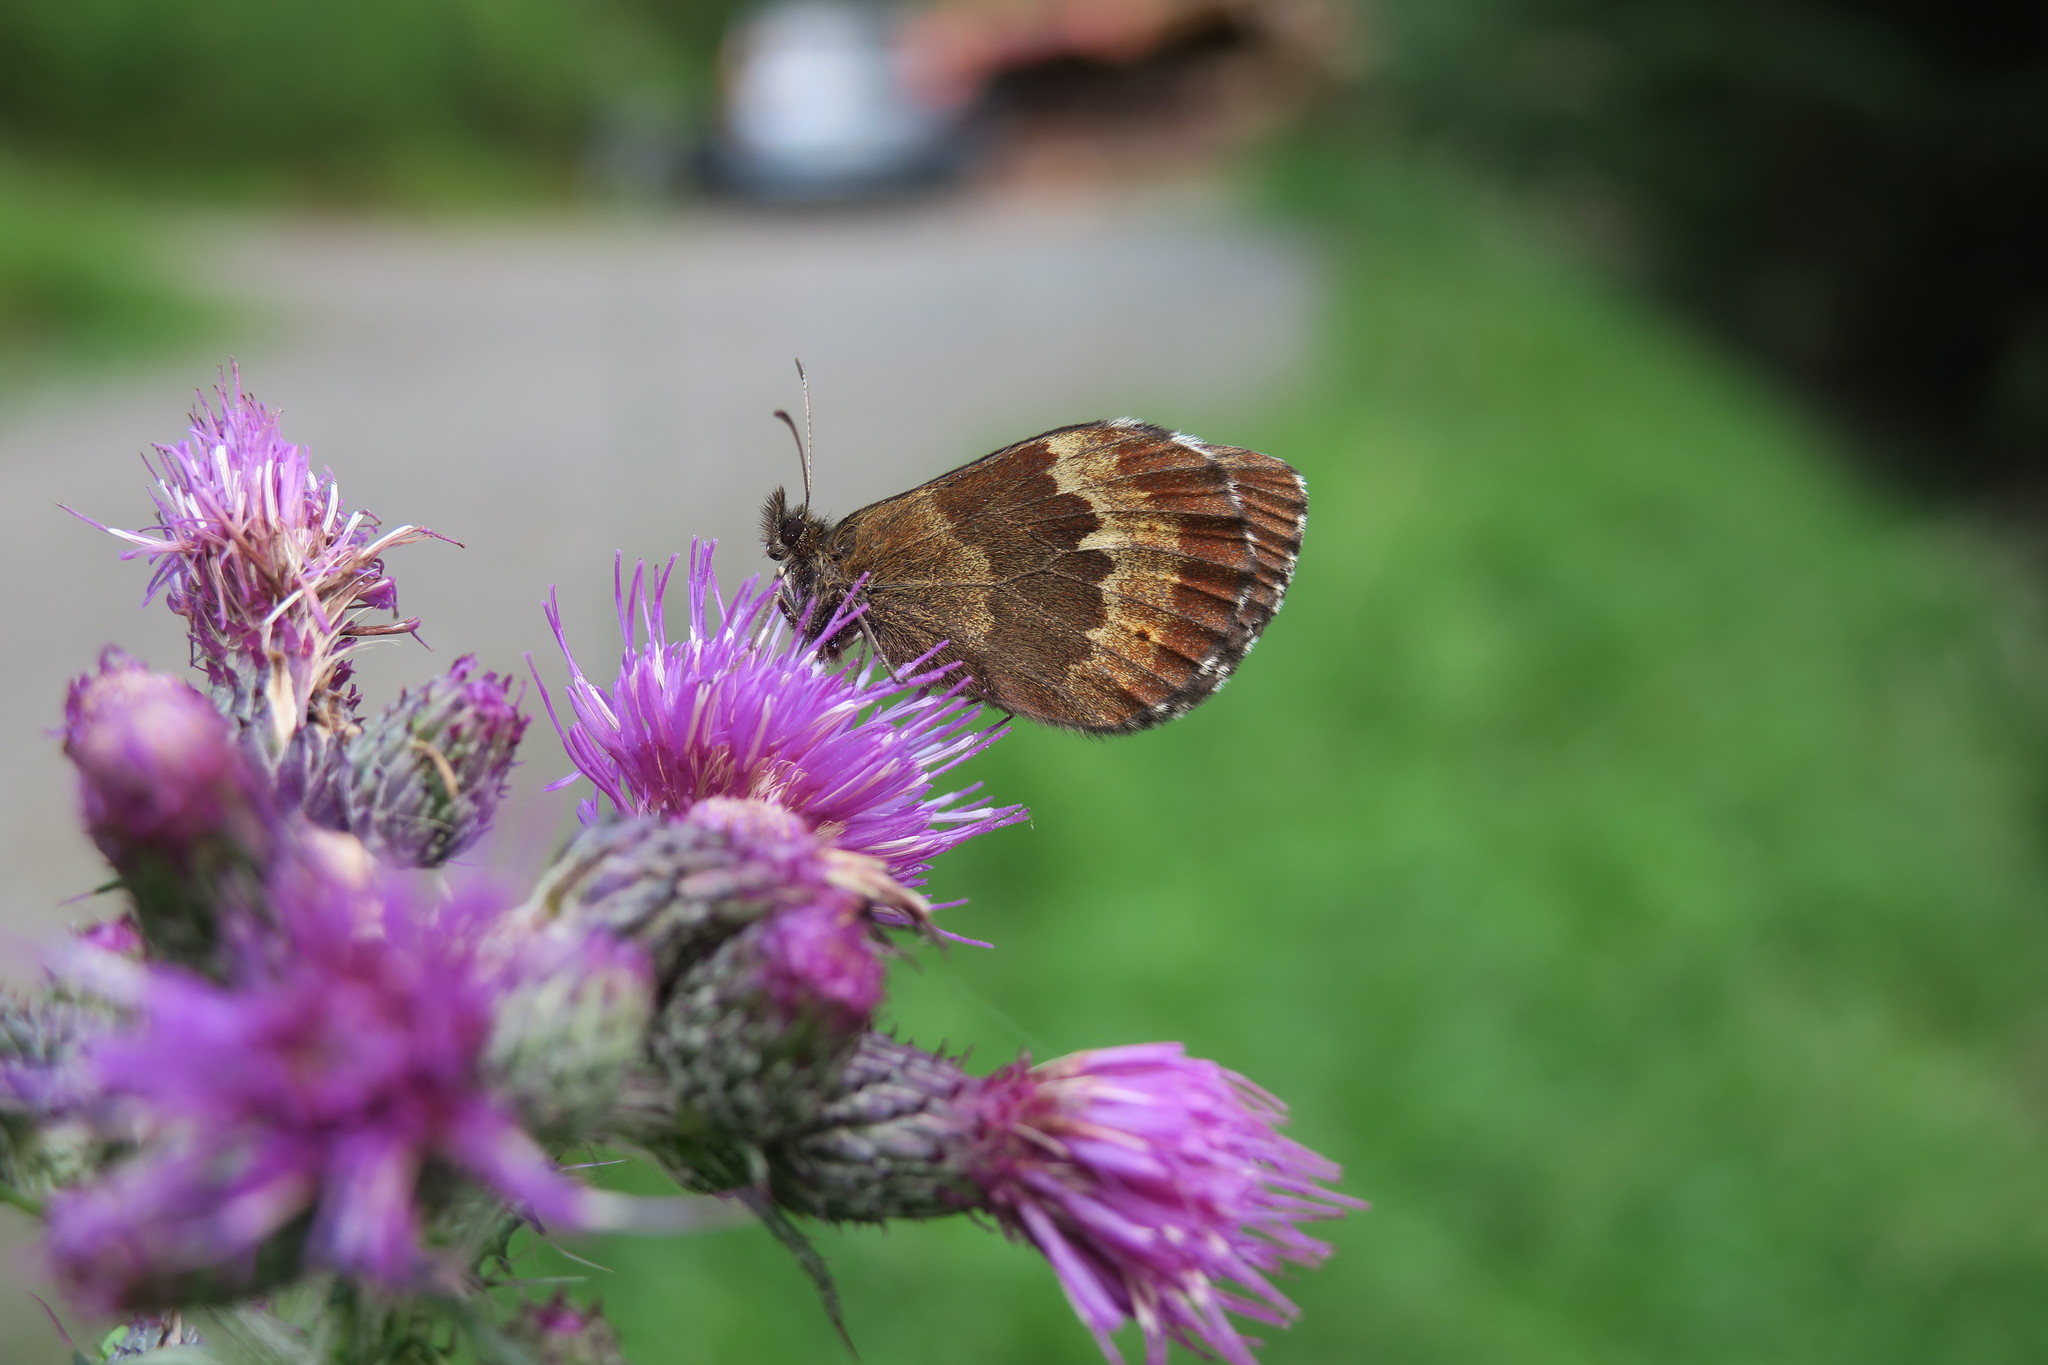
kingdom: Animalia
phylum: Arthropoda
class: Insecta
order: Lepidoptera
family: Nymphalidae
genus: Erebia
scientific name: Erebia euryale
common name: Large ringlet
